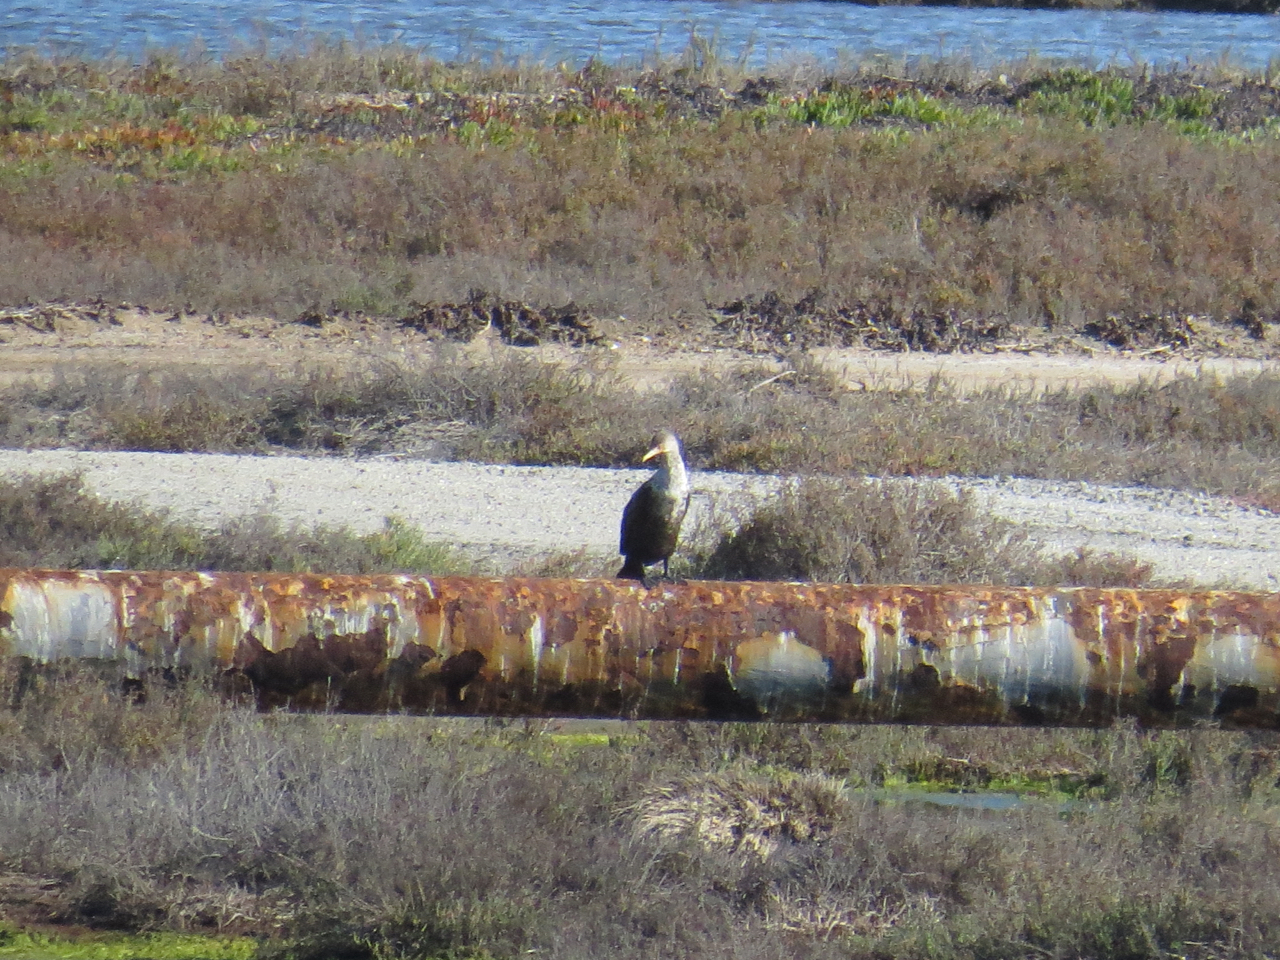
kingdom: Animalia
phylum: Chordata
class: Aves
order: Suliformes
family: Phalacrocoracidae
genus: Phalacrocorax
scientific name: Phalacrocorax auritus
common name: Double-crested cormorant
